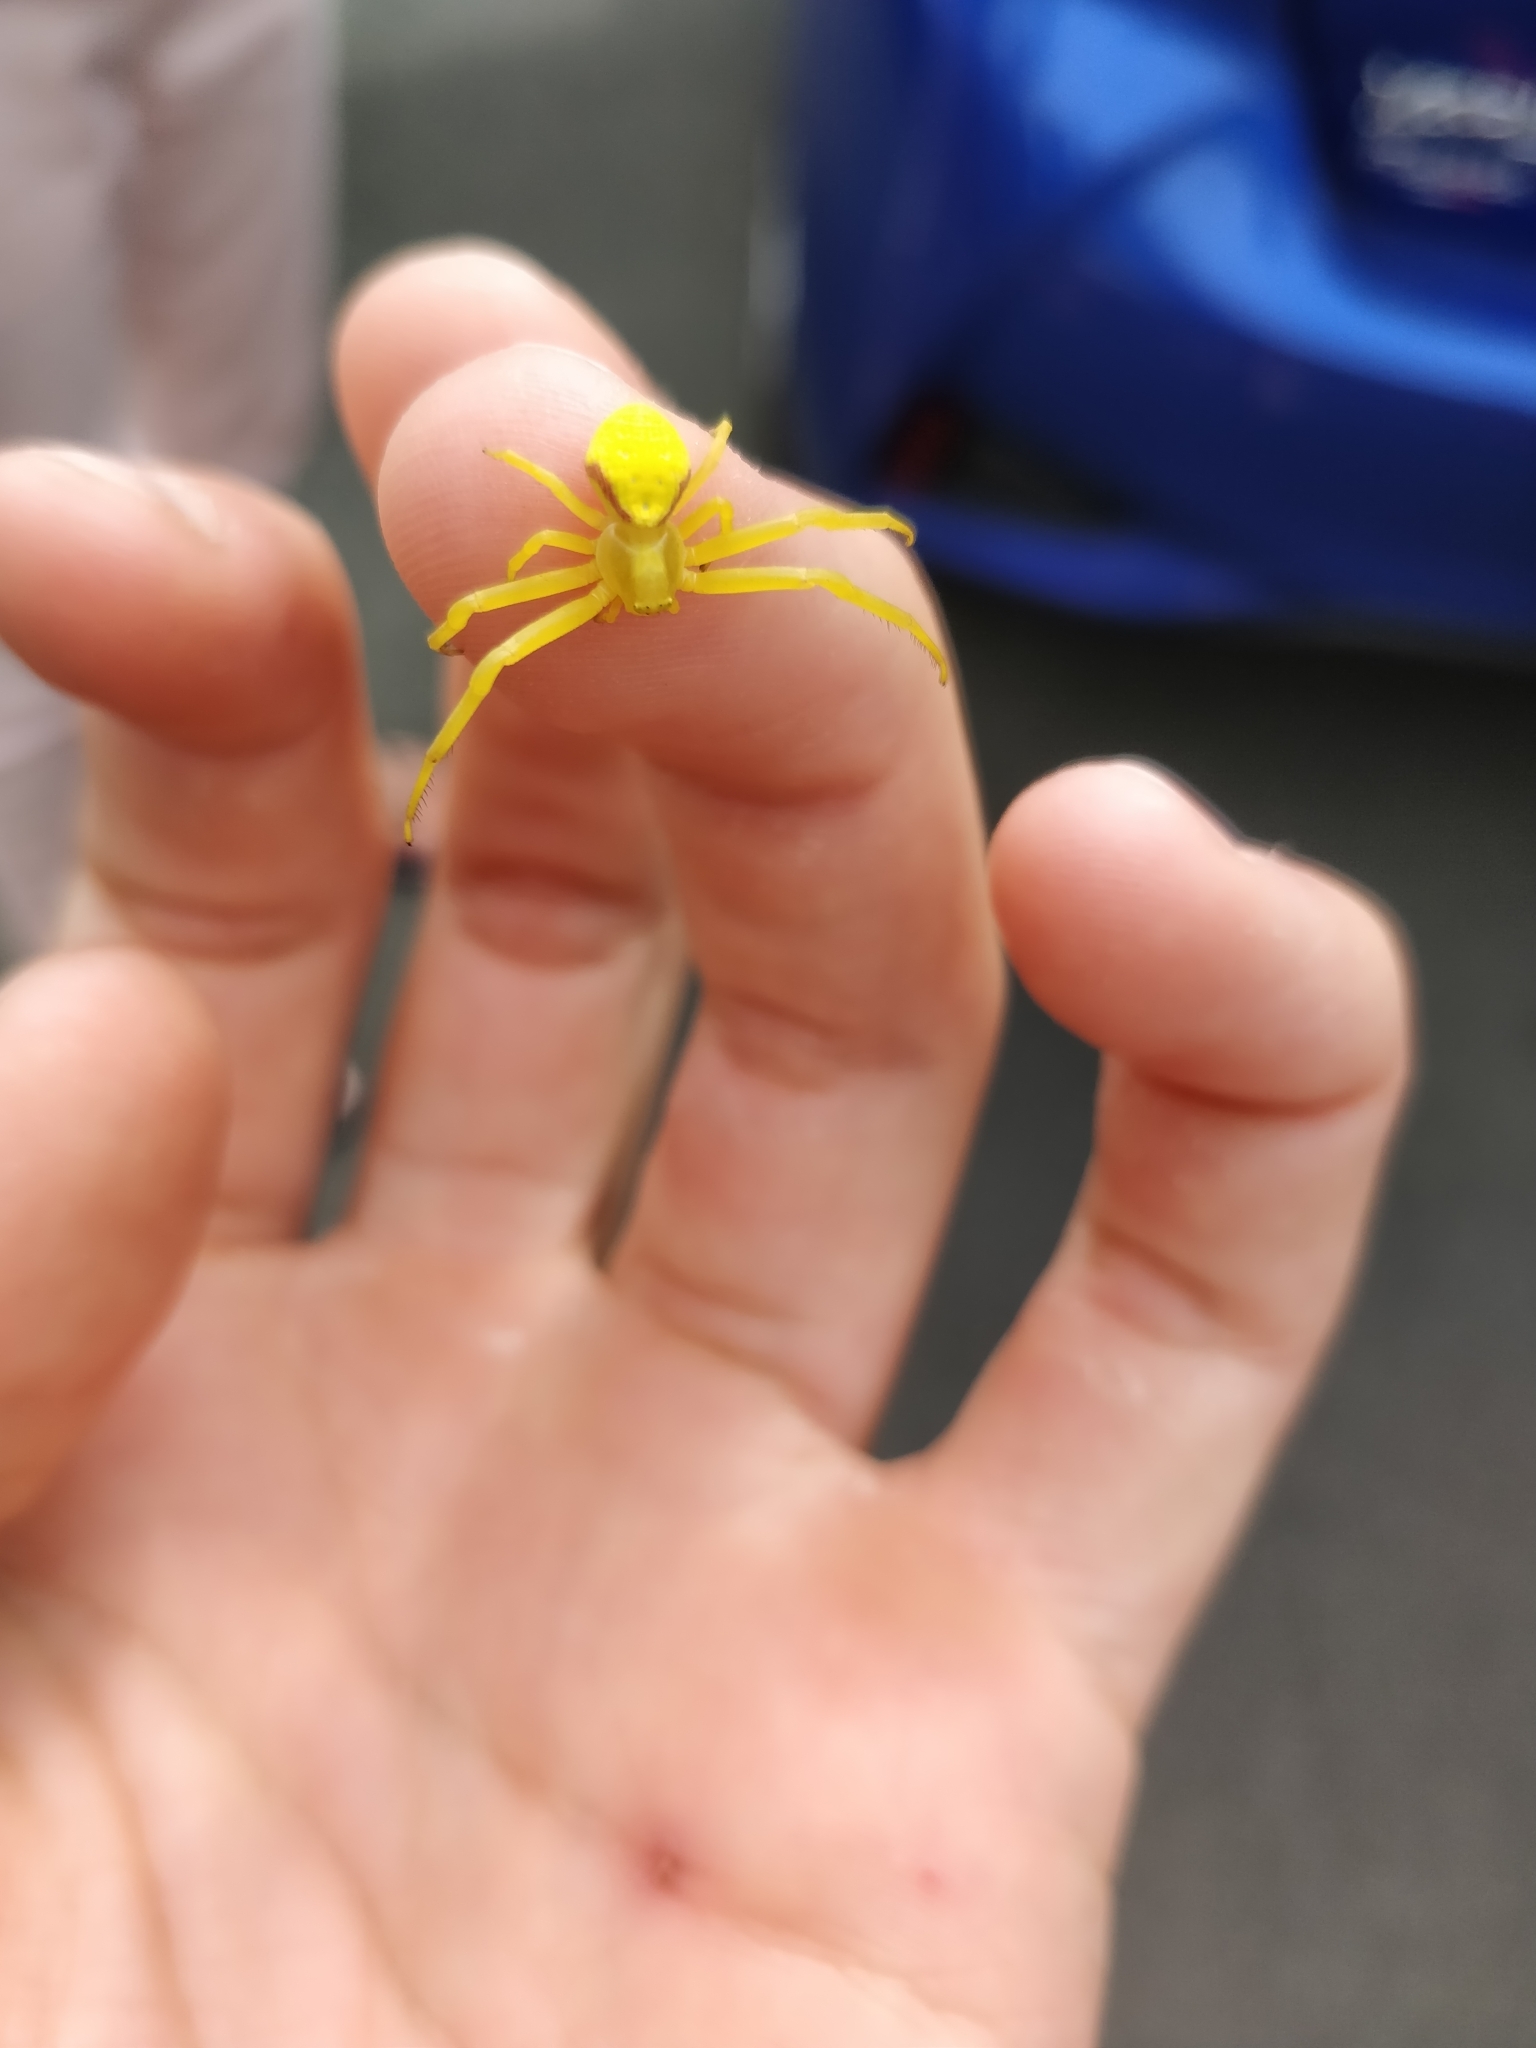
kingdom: Animalia
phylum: Arthropoda
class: Arachnida
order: Araneae
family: Thomisidae
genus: Misumena
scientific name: Misumena vatia
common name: Goldenrod crab spider
